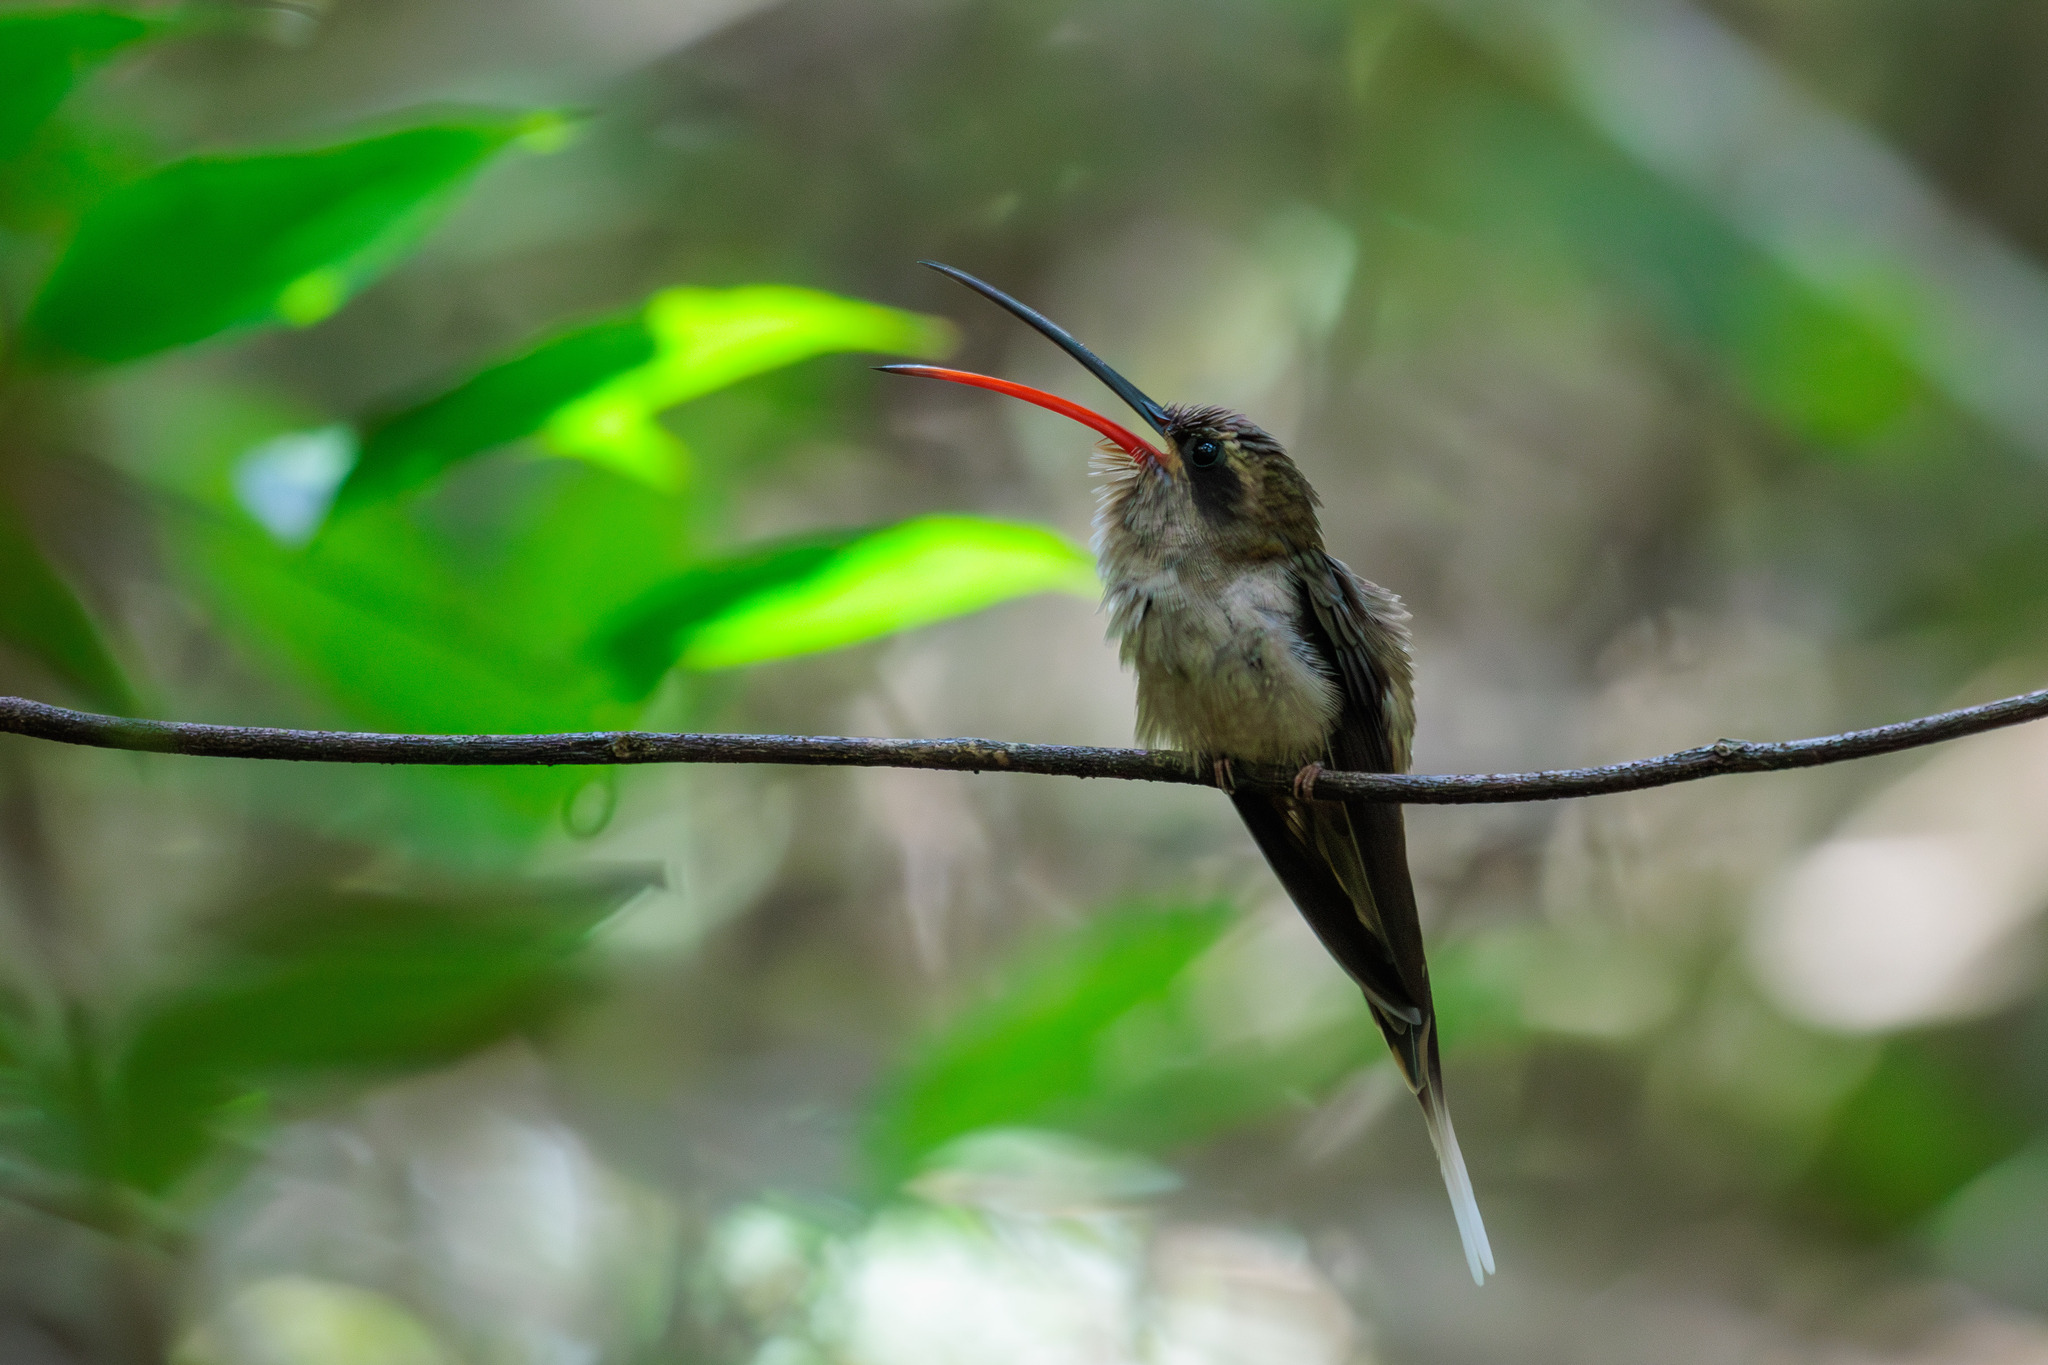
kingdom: Animalia
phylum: Chordata
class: Aves
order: Apodiformes
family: Trochilidae
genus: Phaethornis
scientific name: Phaethornis malaris
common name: Great-billed hermit
